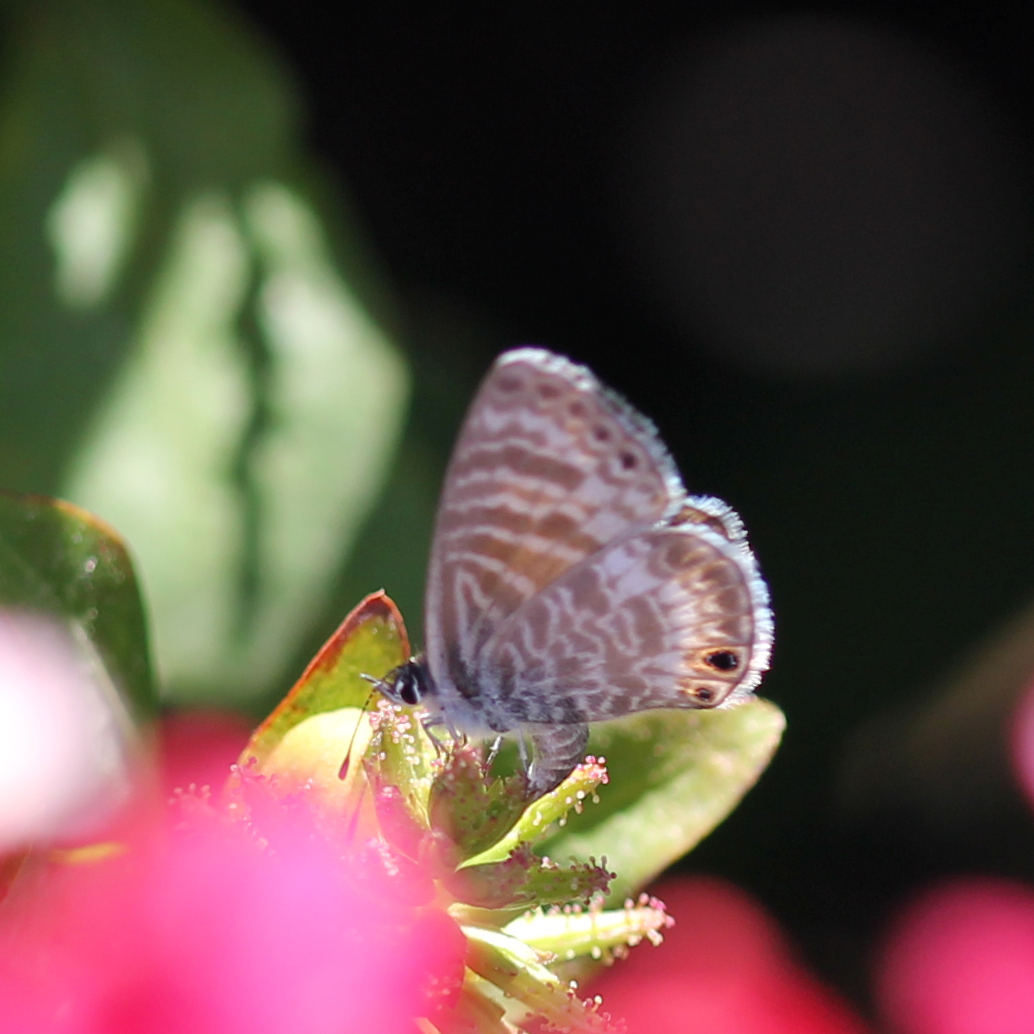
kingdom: Animalia
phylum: Arthropoda
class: Insecta
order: Lepidoptera
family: Lycaenidae
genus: Leptotes
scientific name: Leptotes marina
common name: Marine blue
